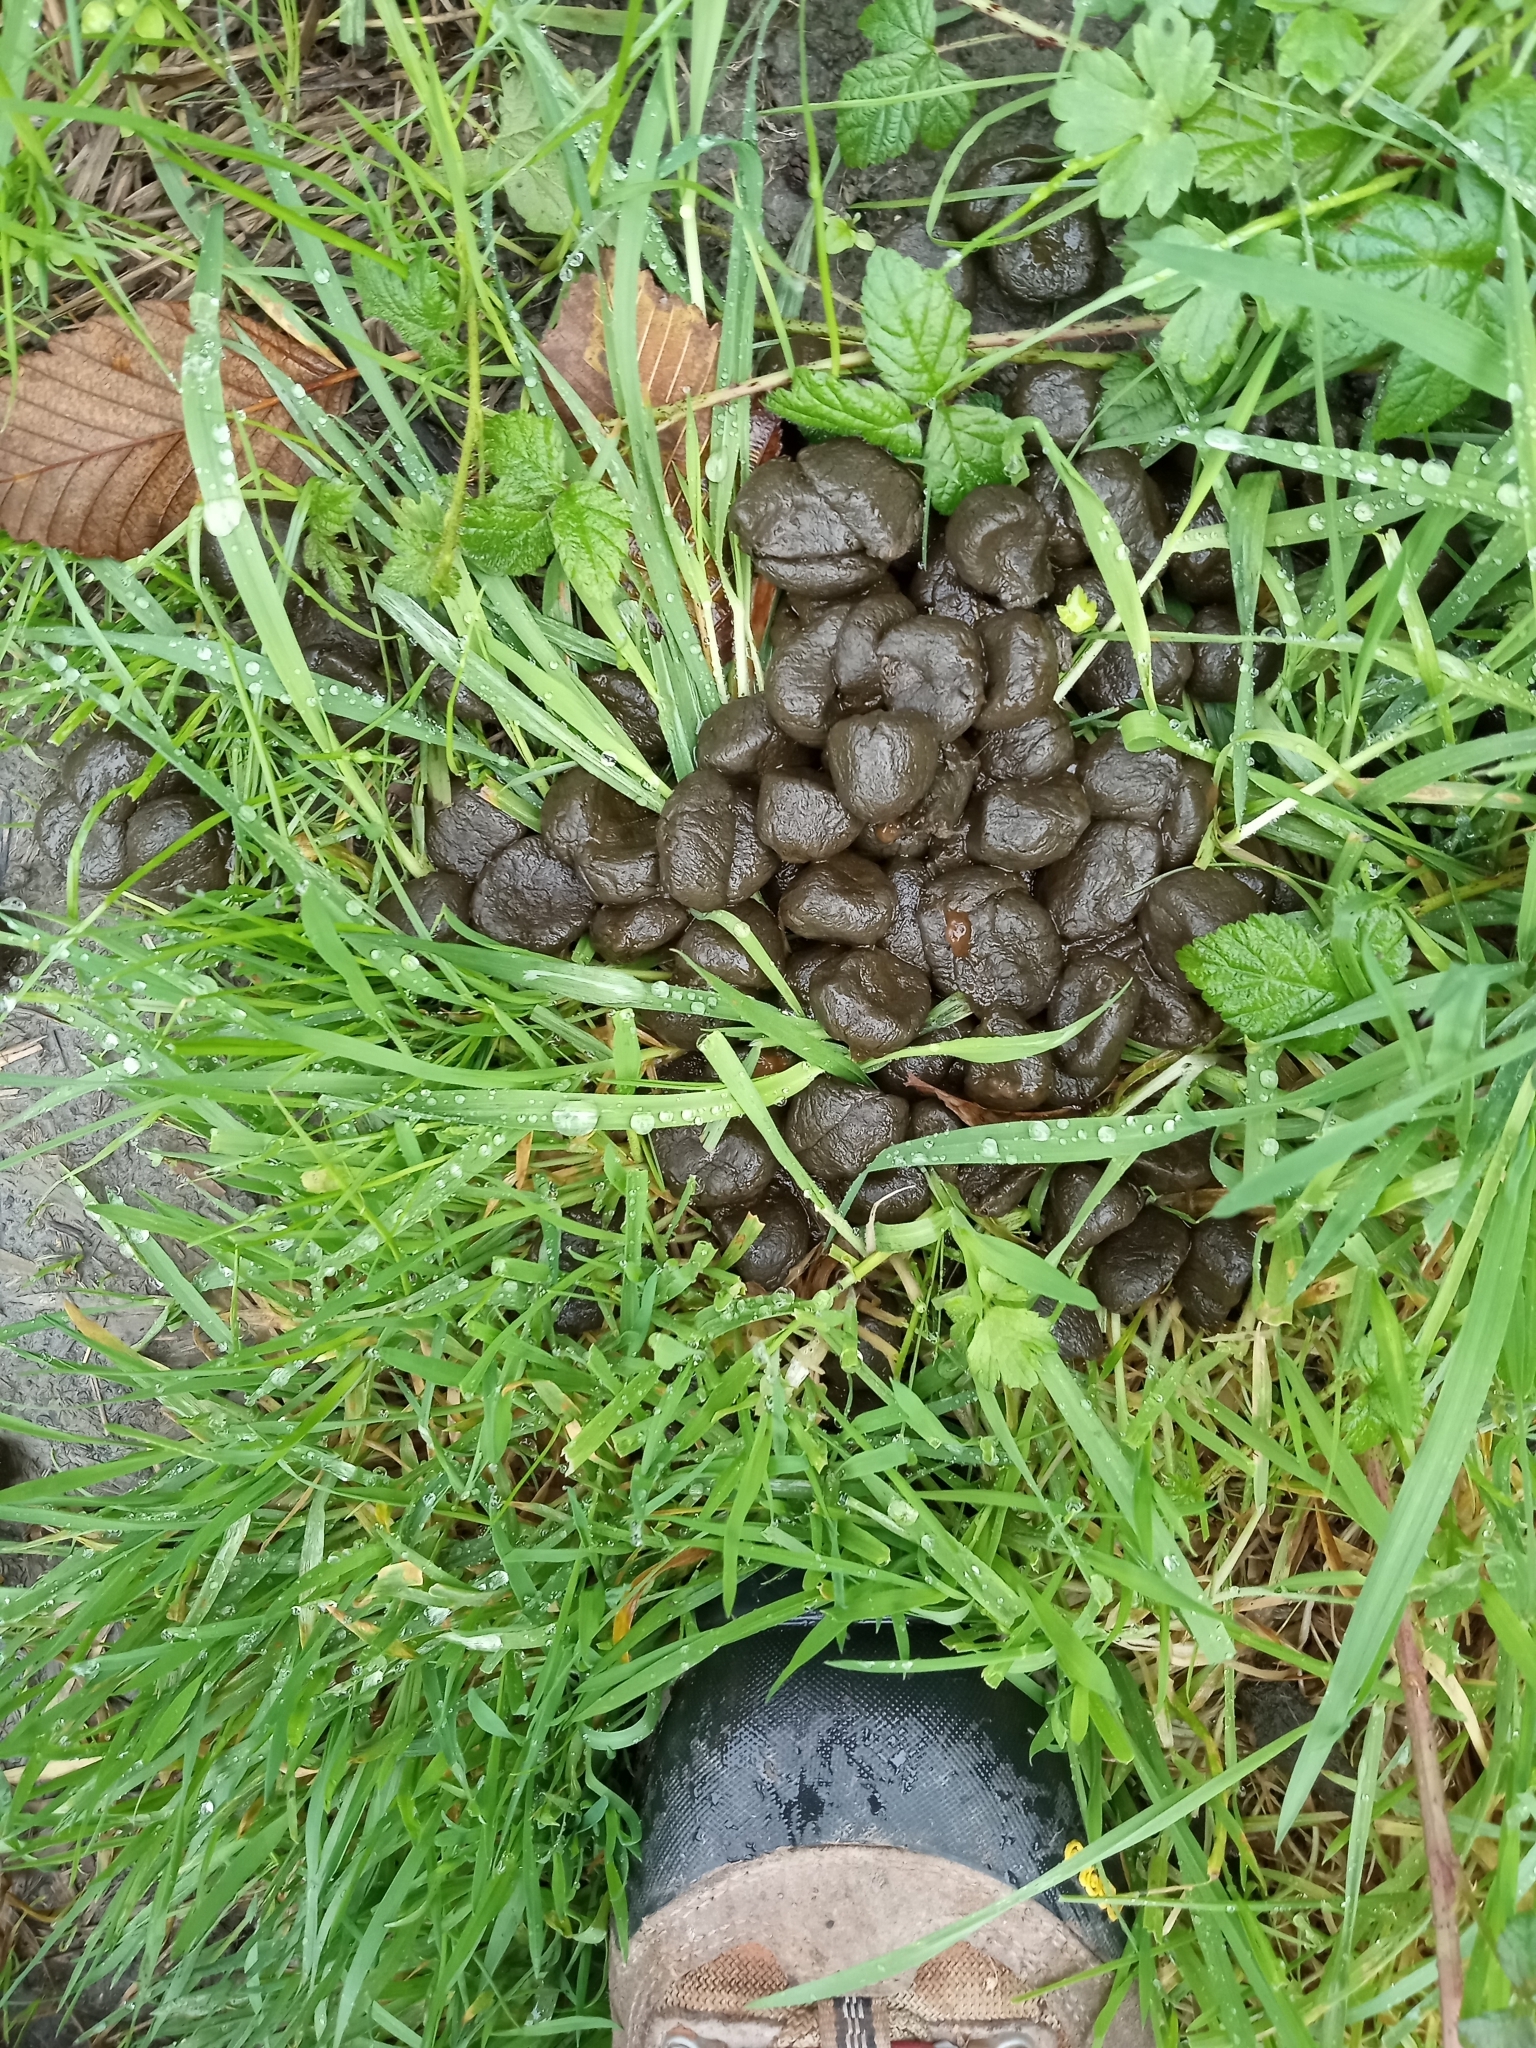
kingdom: Animalia
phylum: Chordata
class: Mammalia
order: Artiodactyla
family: Cervidae
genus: Cervus
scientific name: Cervus elaphus
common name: Red deer
